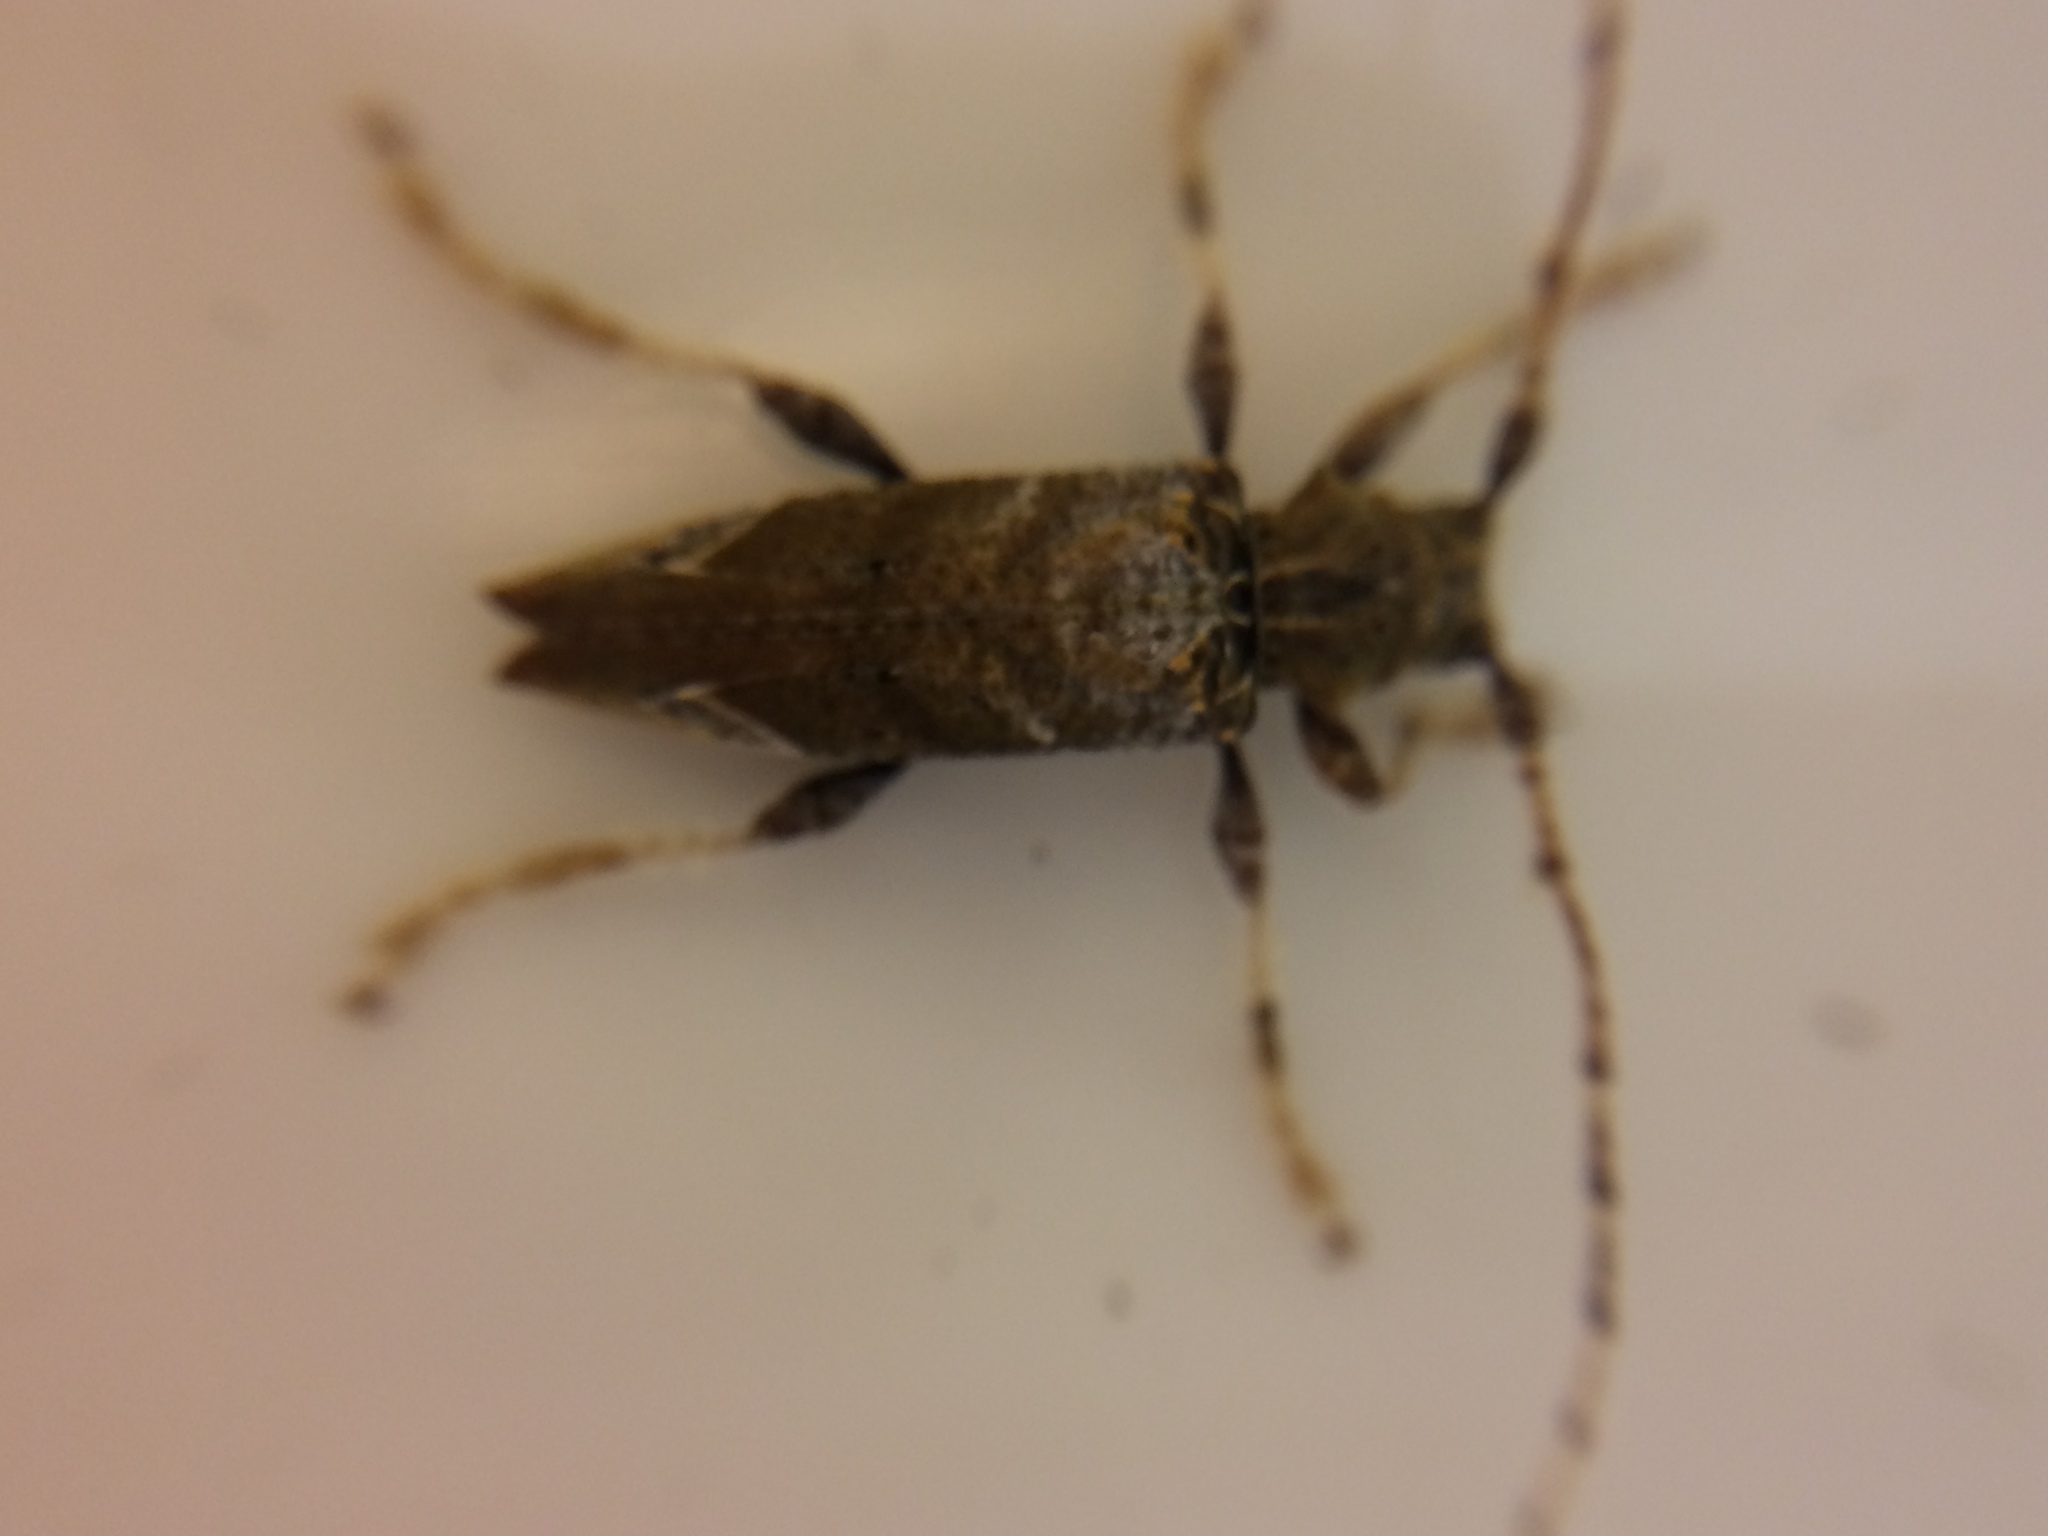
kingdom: Animalia
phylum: Arthropoda
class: Insecta
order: Coleoptera
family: Cerambycidae
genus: Tetrorea
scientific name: Tetrorea cilipes
